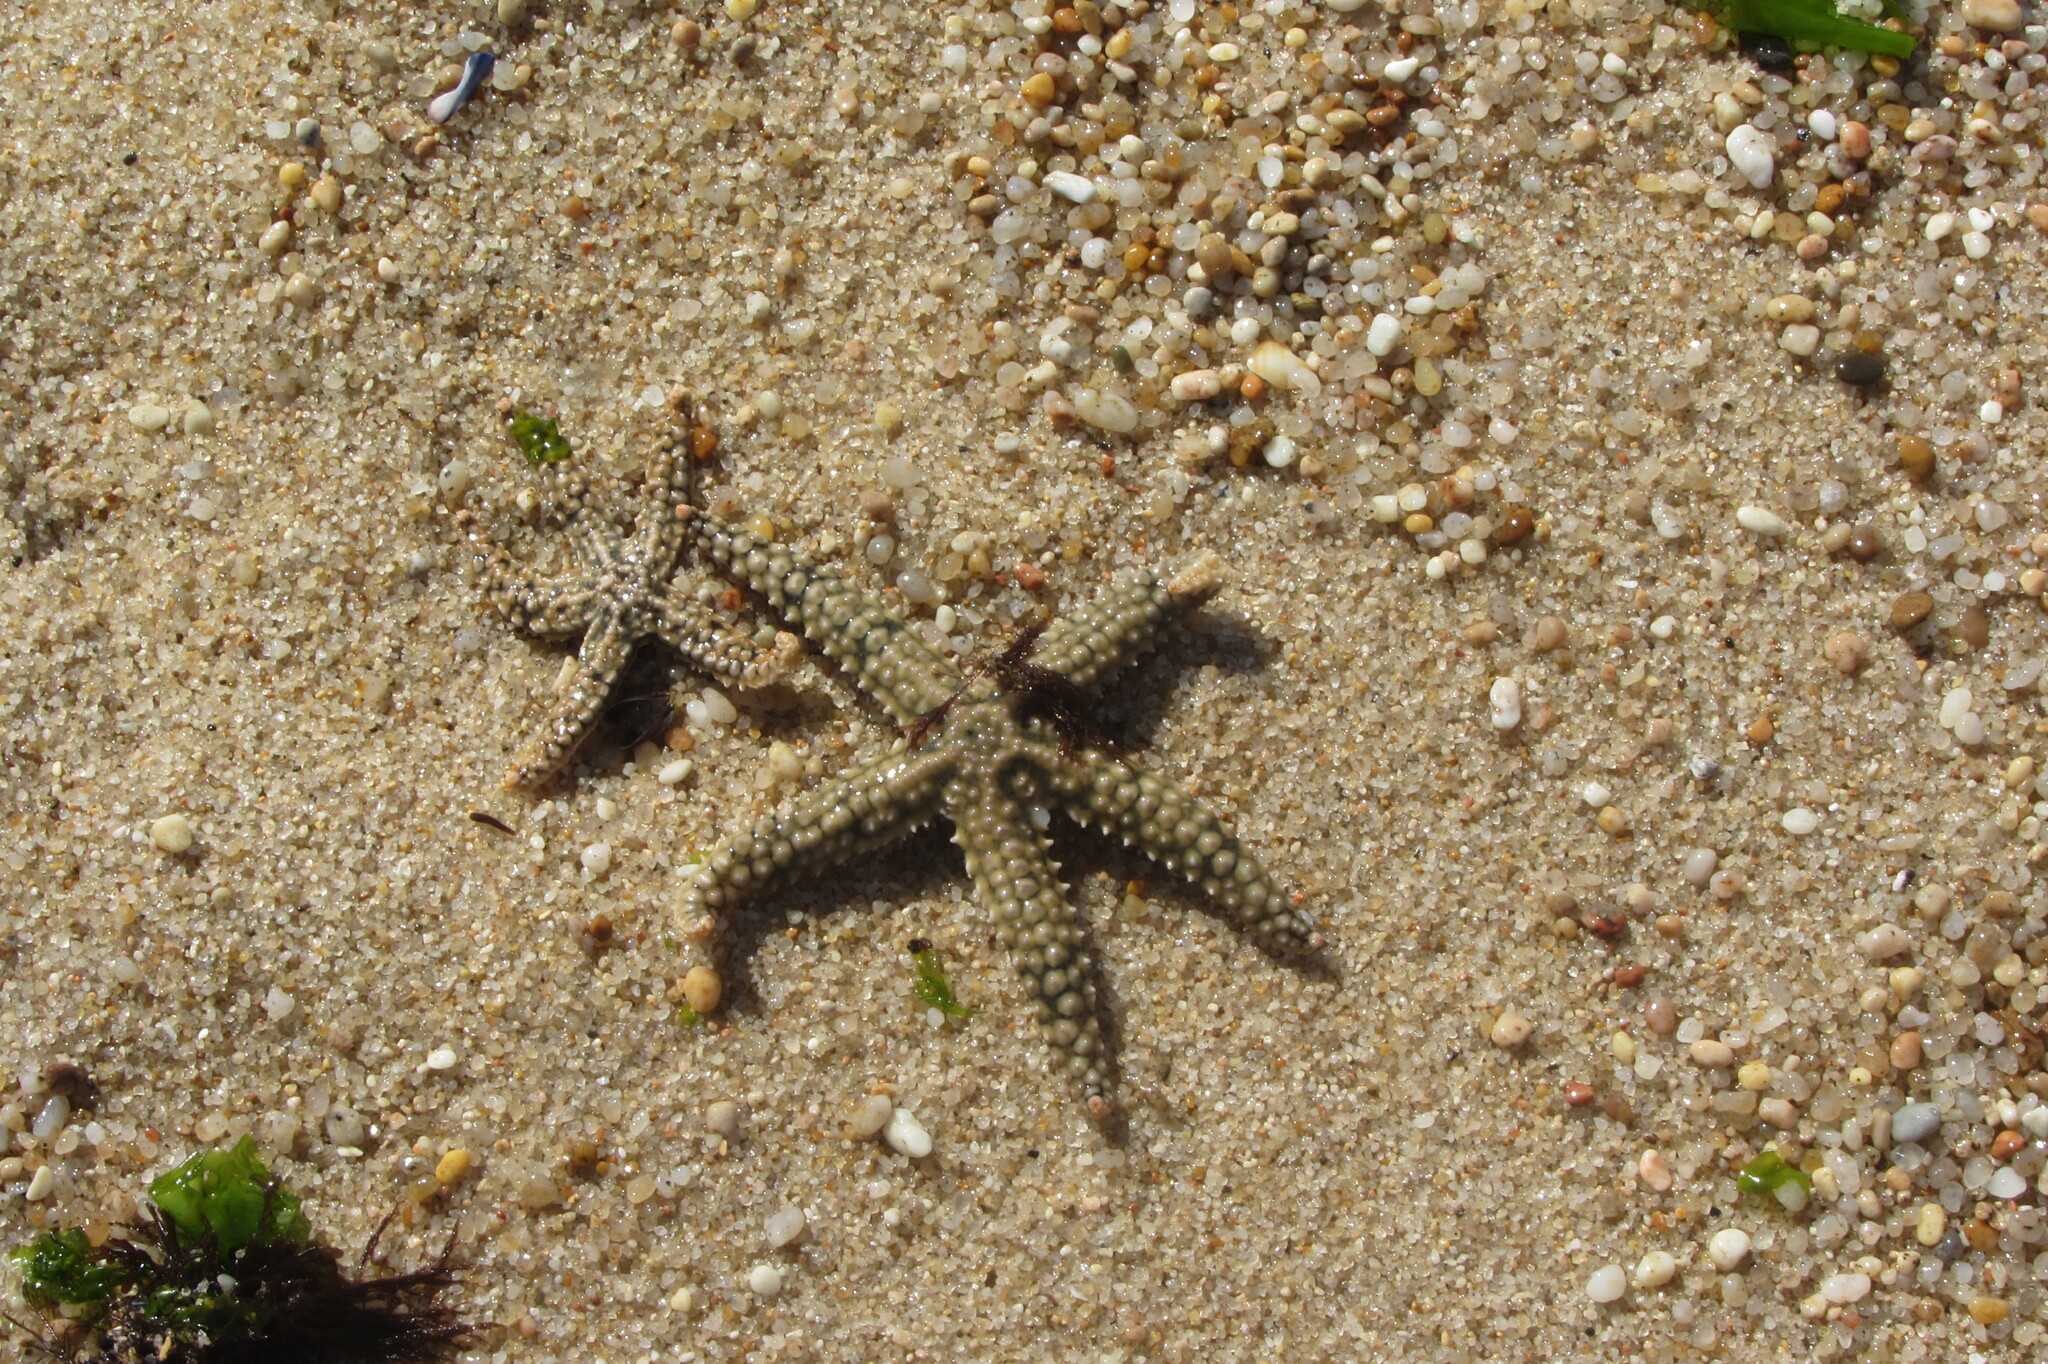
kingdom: Animalia
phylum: Echinodermata
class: Asteroidea
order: Forcipulatida
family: Asteriidae
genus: Marthasterias
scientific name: Marthasterias glacialis
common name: Spiny starfish
